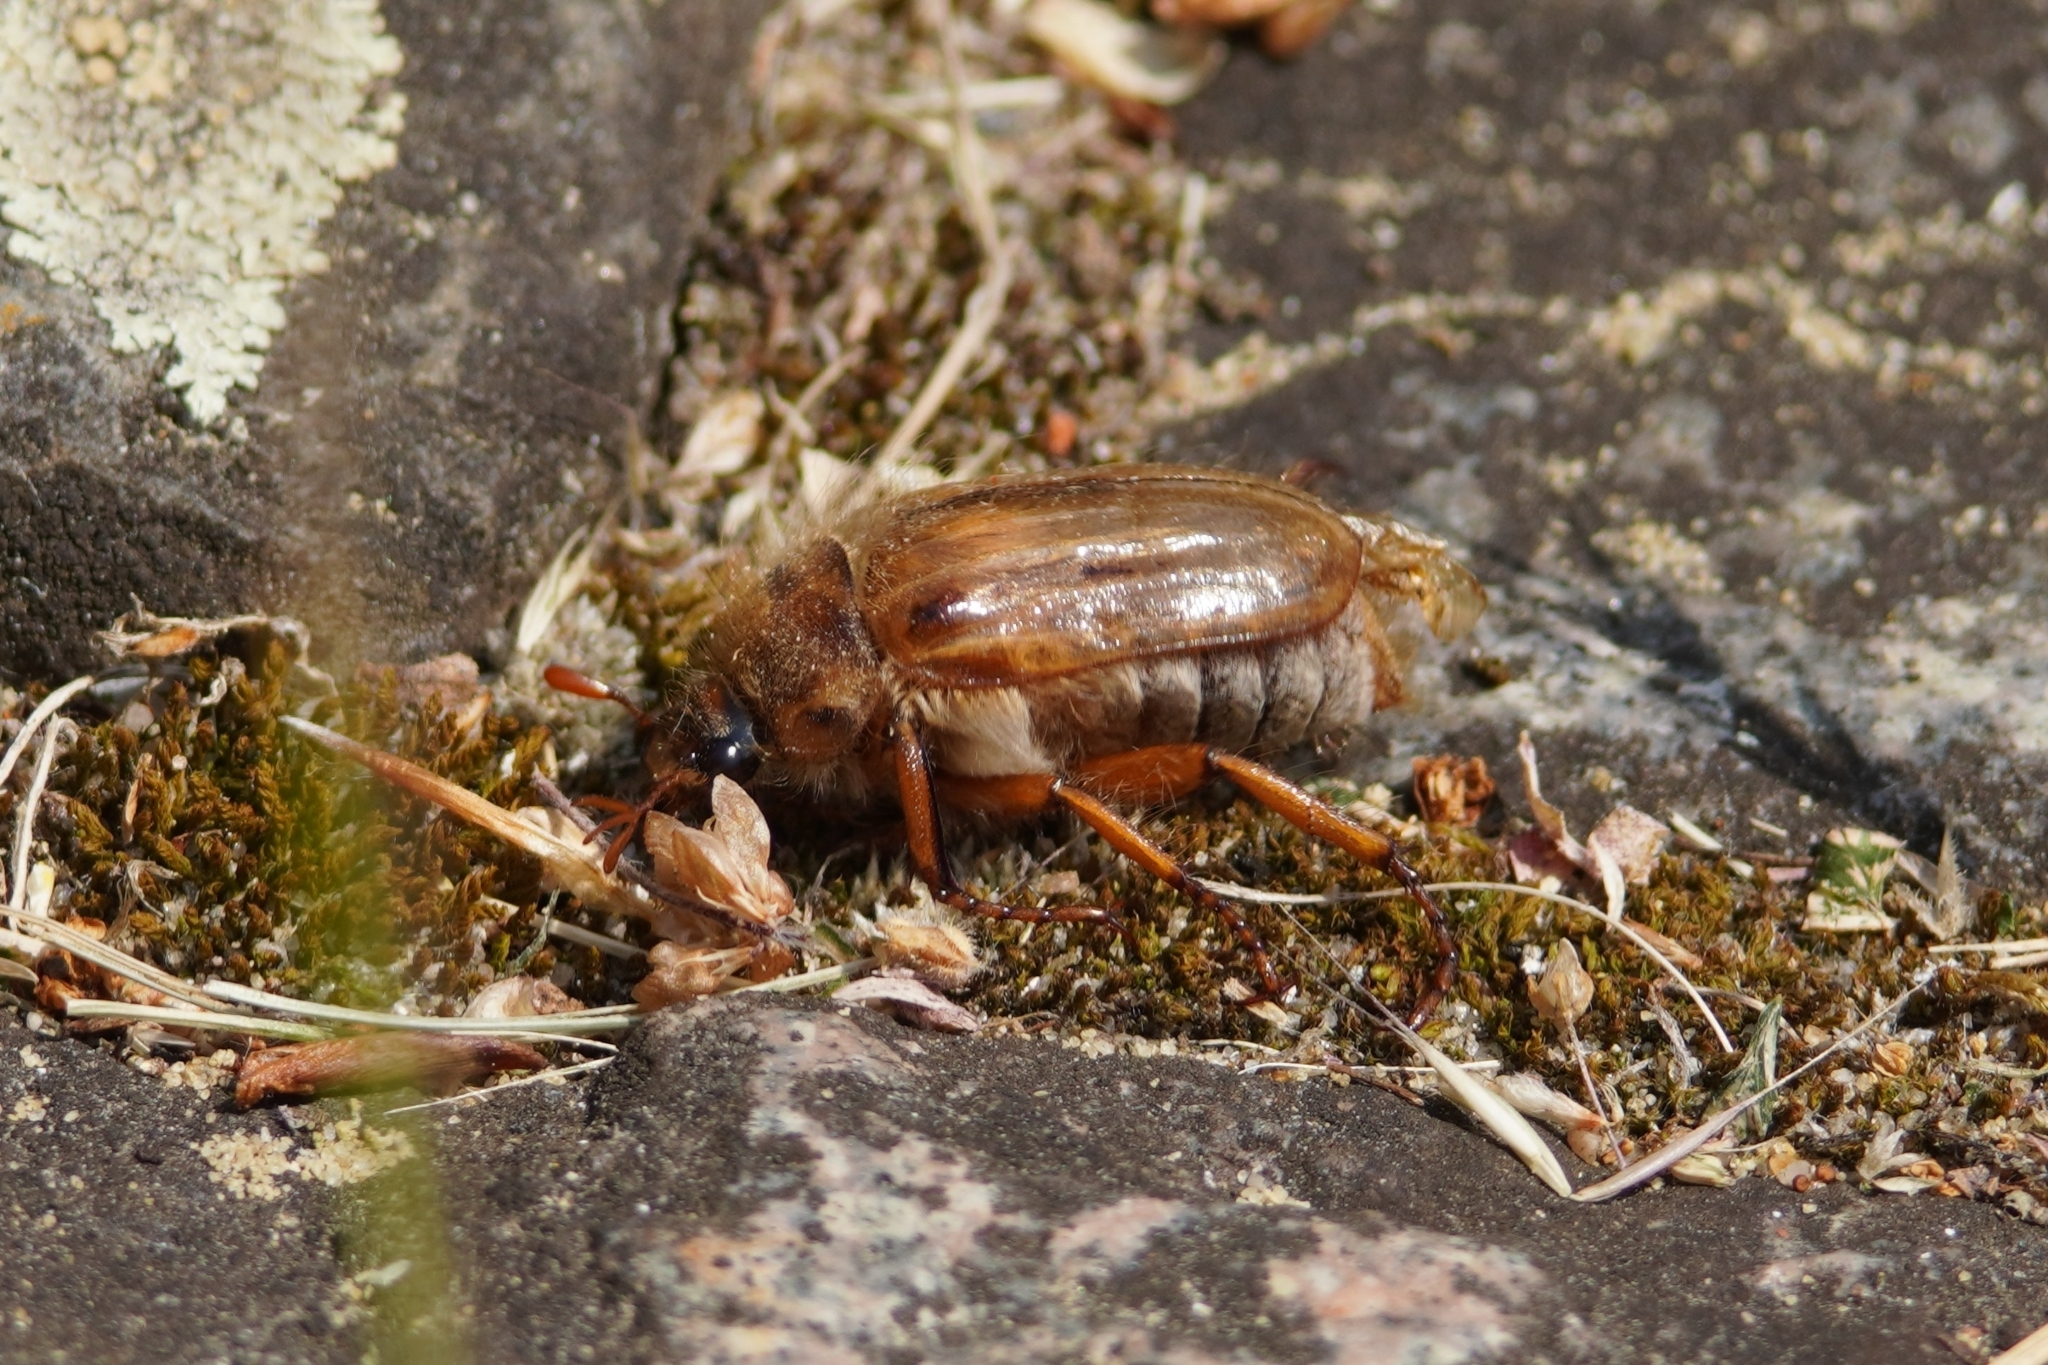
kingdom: Animalia
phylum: Arthropoda
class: Insecta
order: Coleoptera
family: Scarabaeidae
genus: Amphimallon
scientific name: Amphimallon solstitiale
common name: Summer chafer
